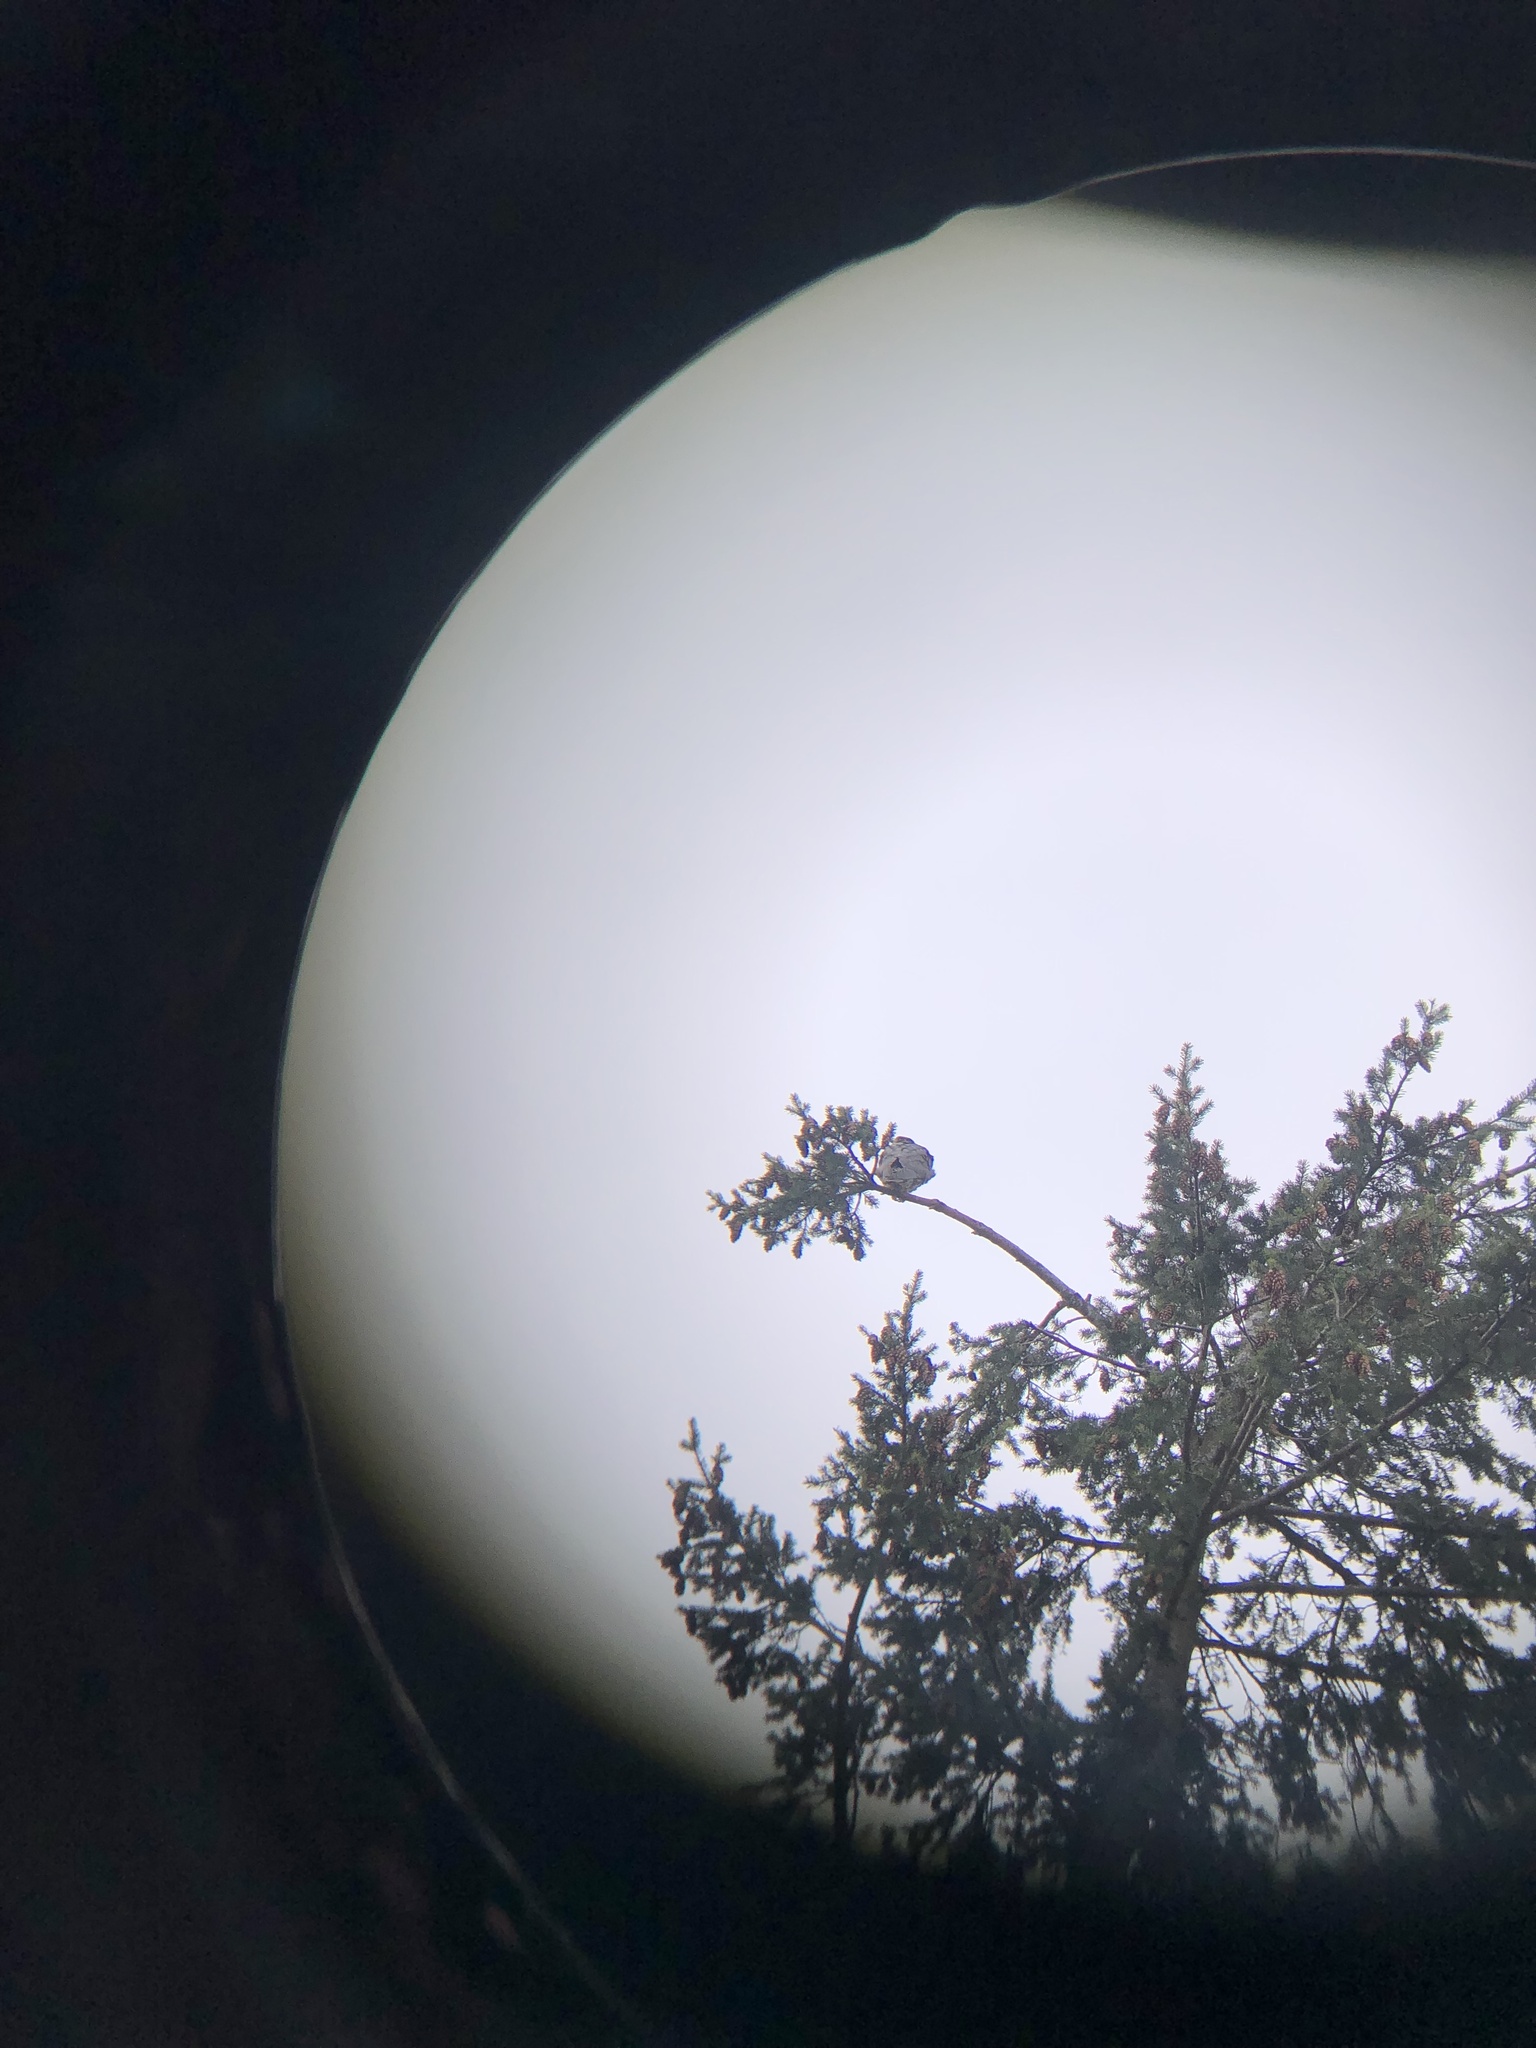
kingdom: Animalia
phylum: Chordata
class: Aves
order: Falconiformes
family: Falconidae
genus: Falco
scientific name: Falco peregrinus
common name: Peregrine falcon
